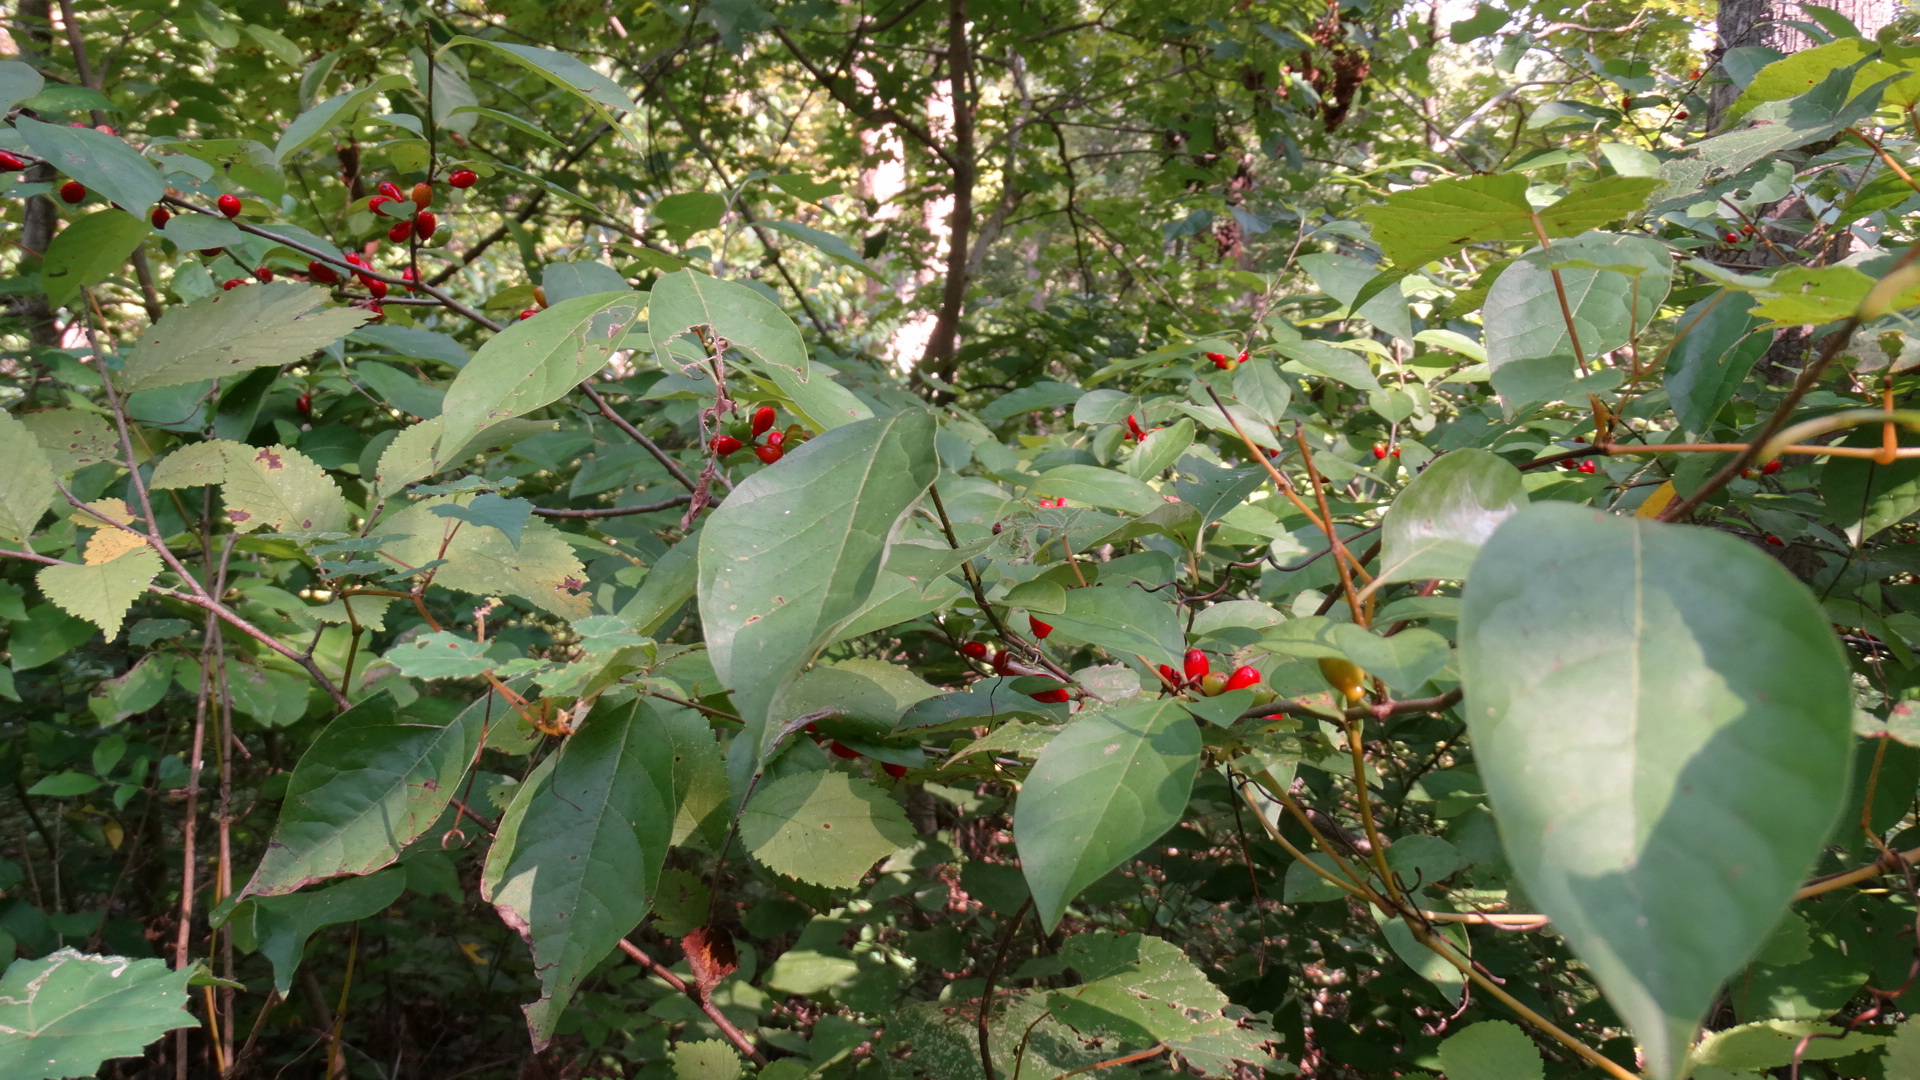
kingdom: Plantae
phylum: Tracheophyta
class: Magnoliopsida
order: Laurales
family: Lauraceae
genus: Lindera
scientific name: Lindera benzoin
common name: Spicebush
